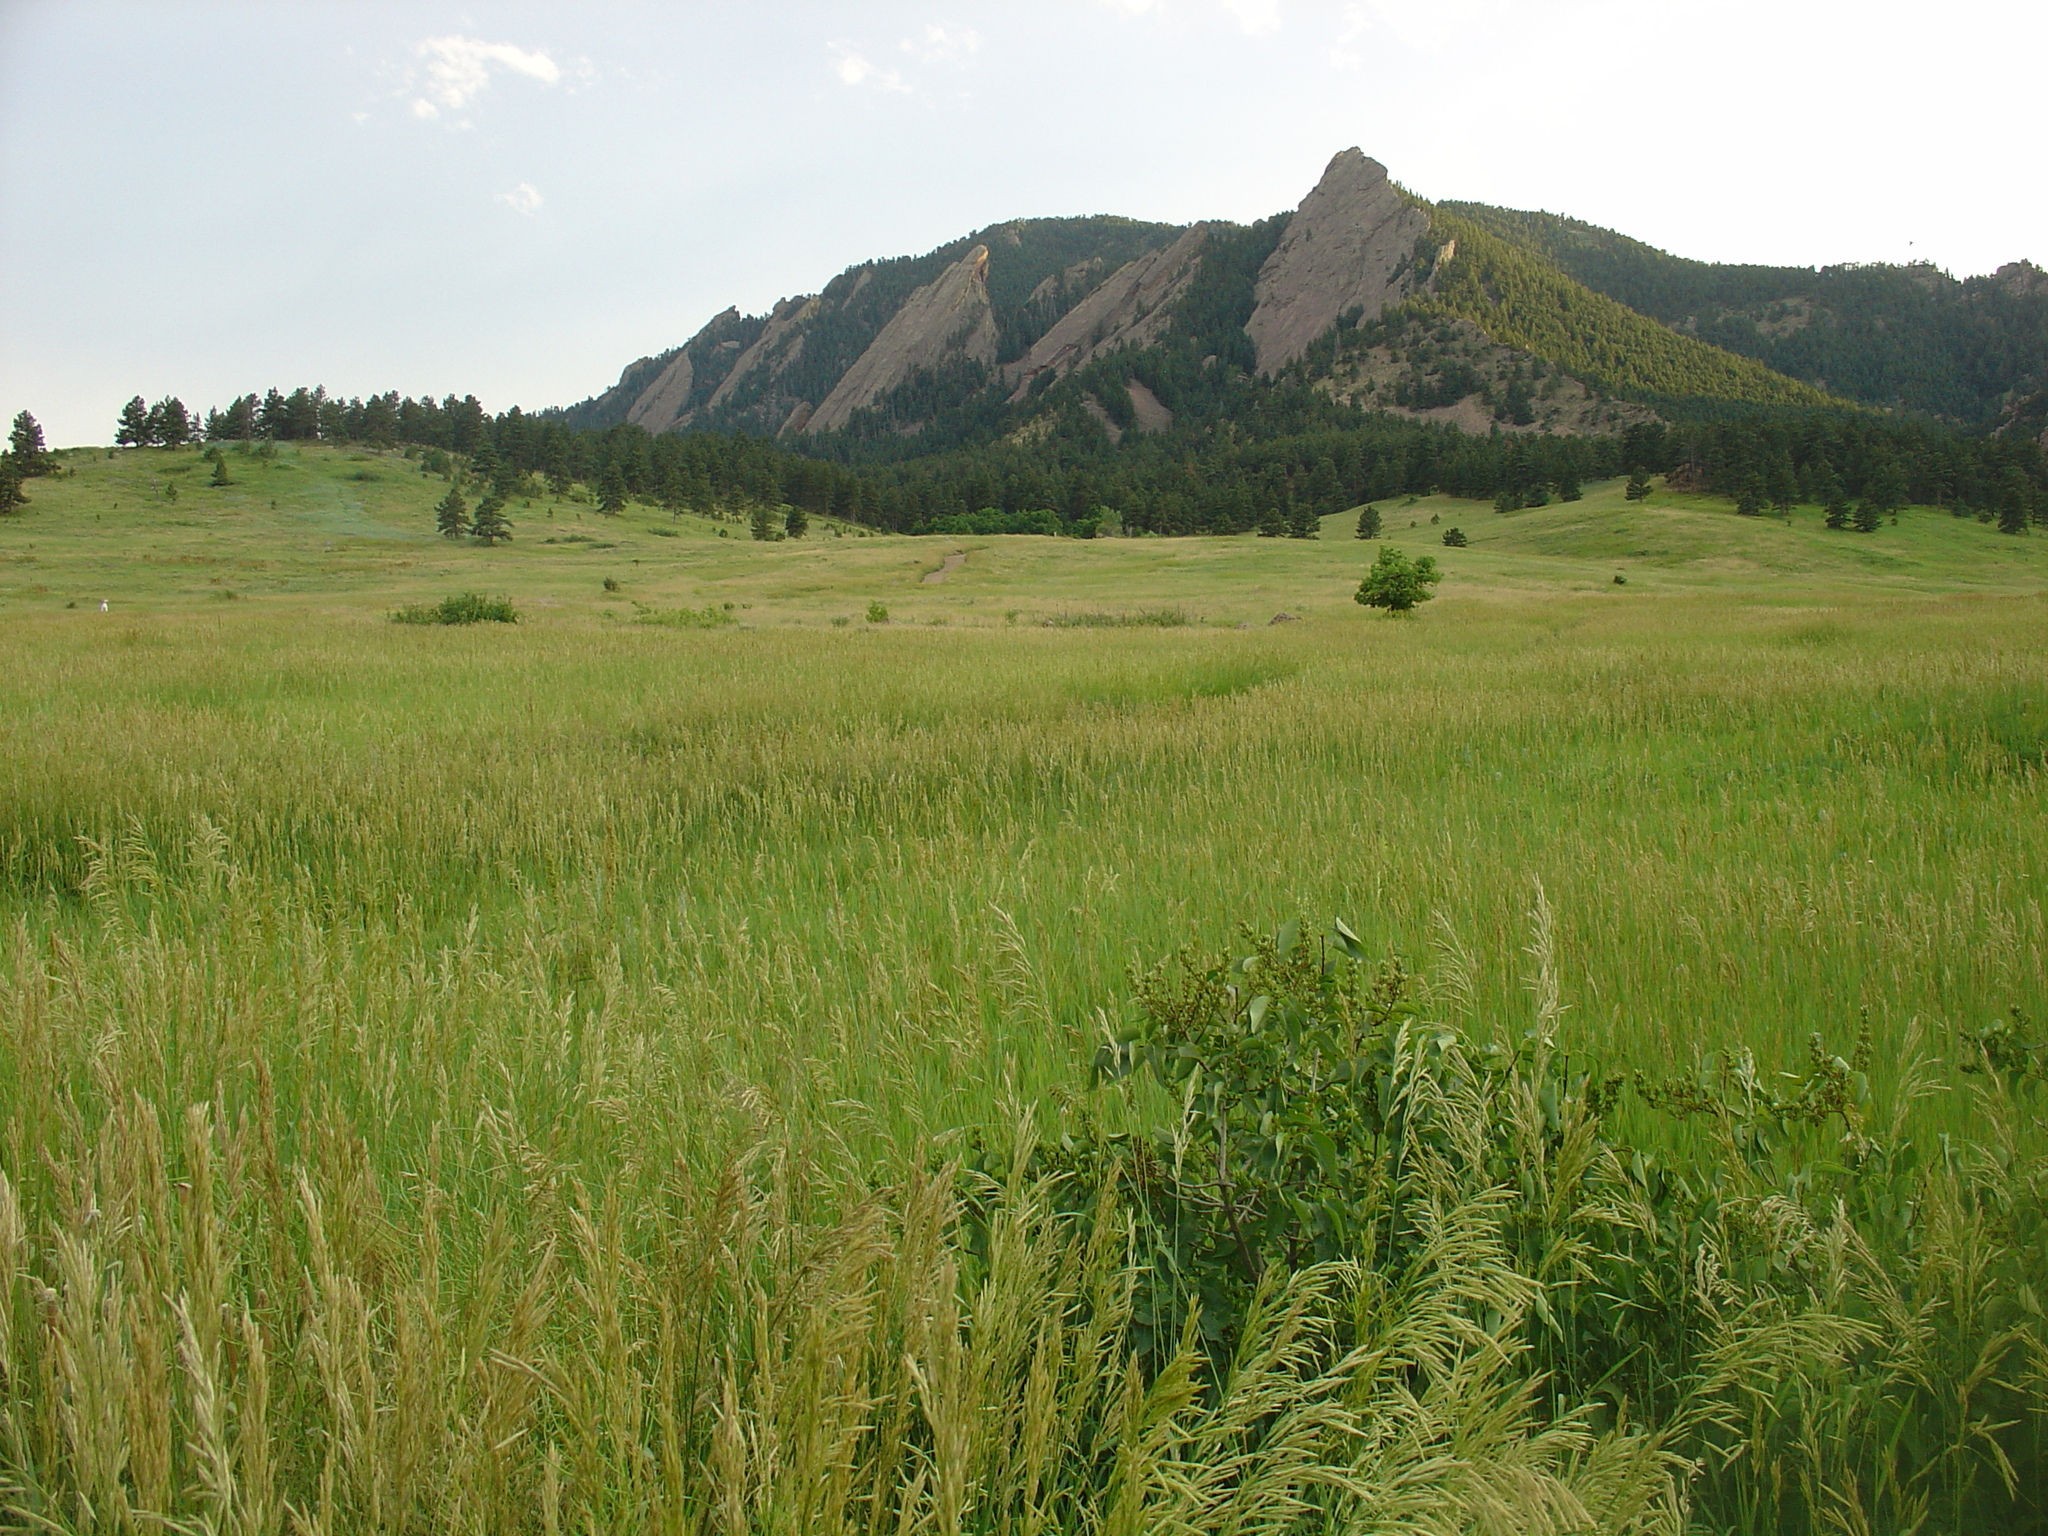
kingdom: Plantae
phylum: Tracheophyta
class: Liliopsida
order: Poales
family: Poaceae
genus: Bromus
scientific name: Bromus inermis
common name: Smooth brome
